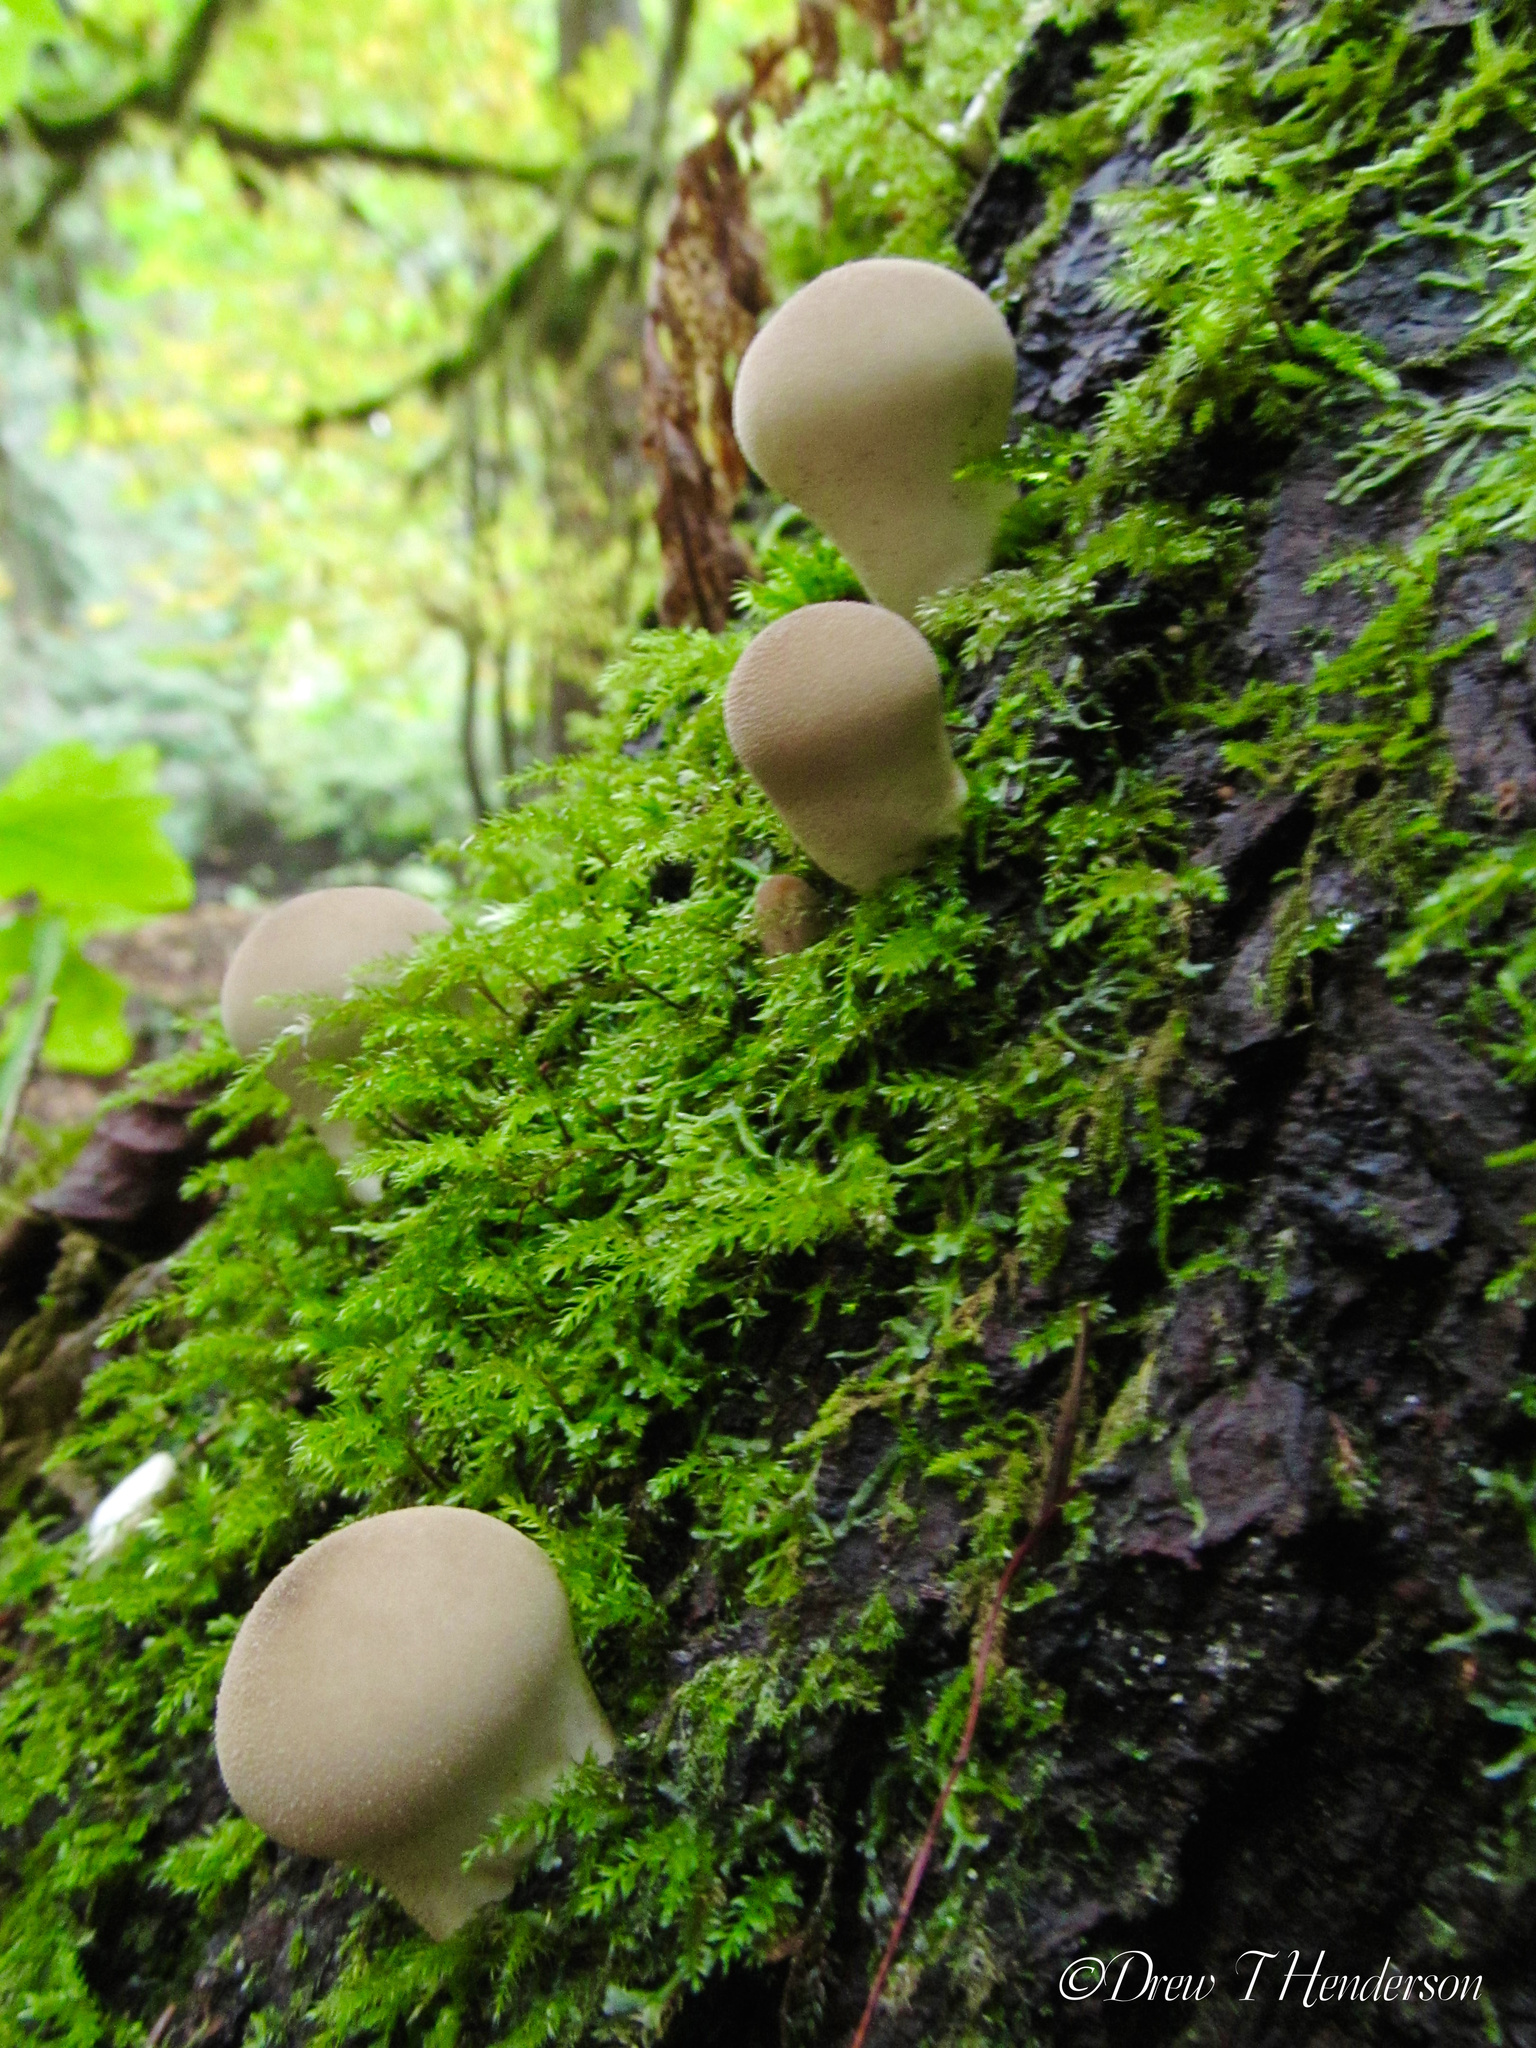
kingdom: Fungi
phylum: Basidiomycota
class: Agaricomycetes
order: Agaricales
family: Lycoperdaceae
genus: Apioperdon
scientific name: Apioperdon pyriforme
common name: Pear-shaped puffball
